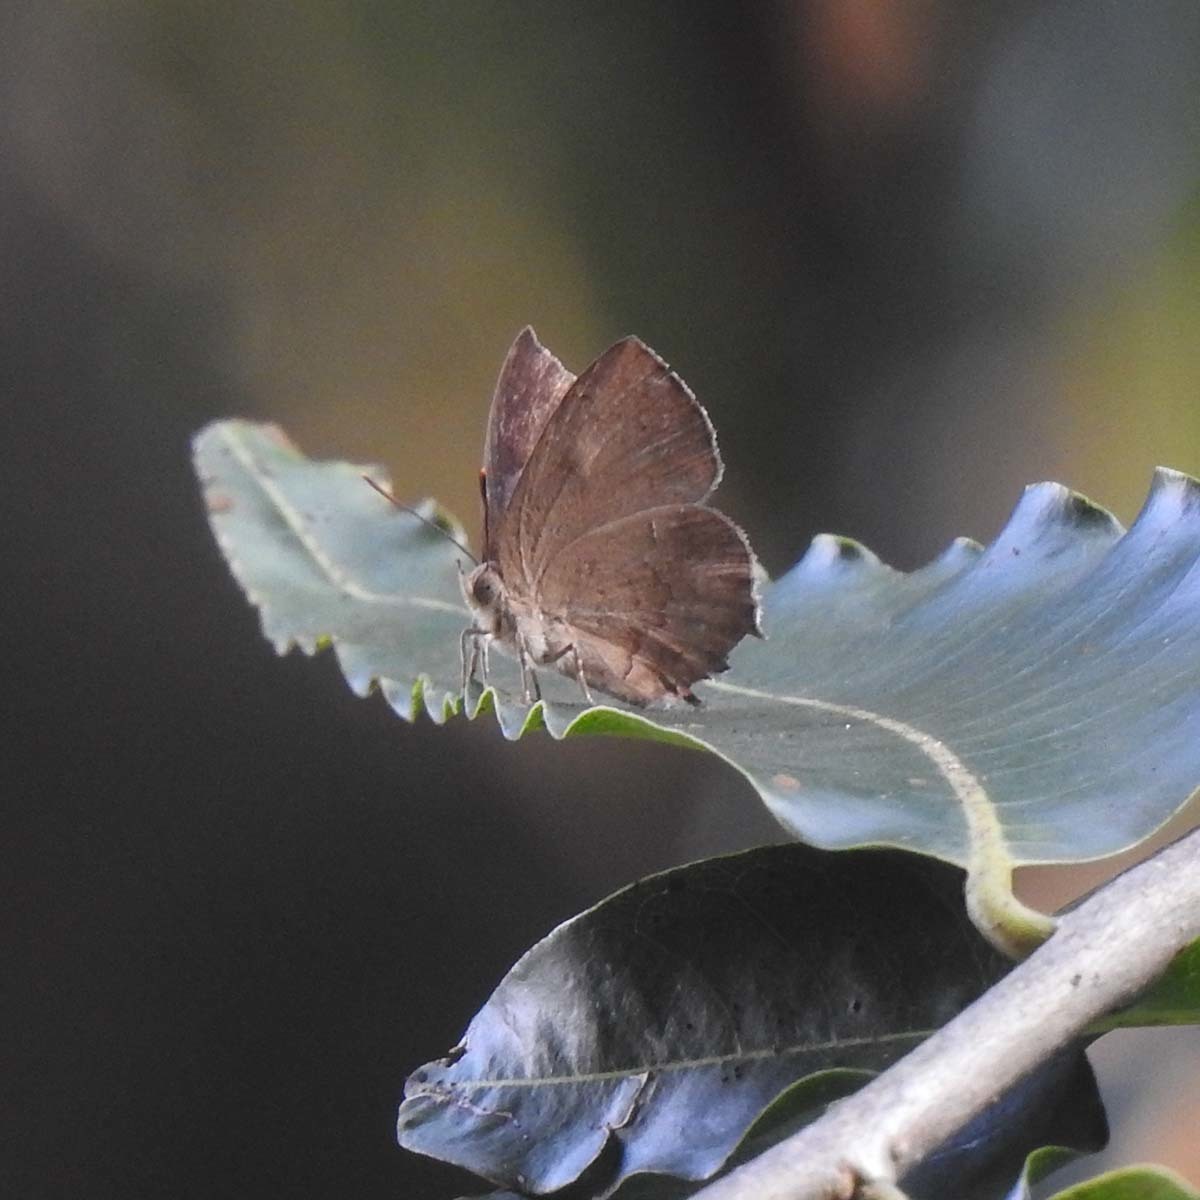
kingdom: Animalia
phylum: Arthropoda
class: Insecta
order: Lepidoptera
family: Lycaenidae
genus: Surendra
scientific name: Surendra quercetorum
